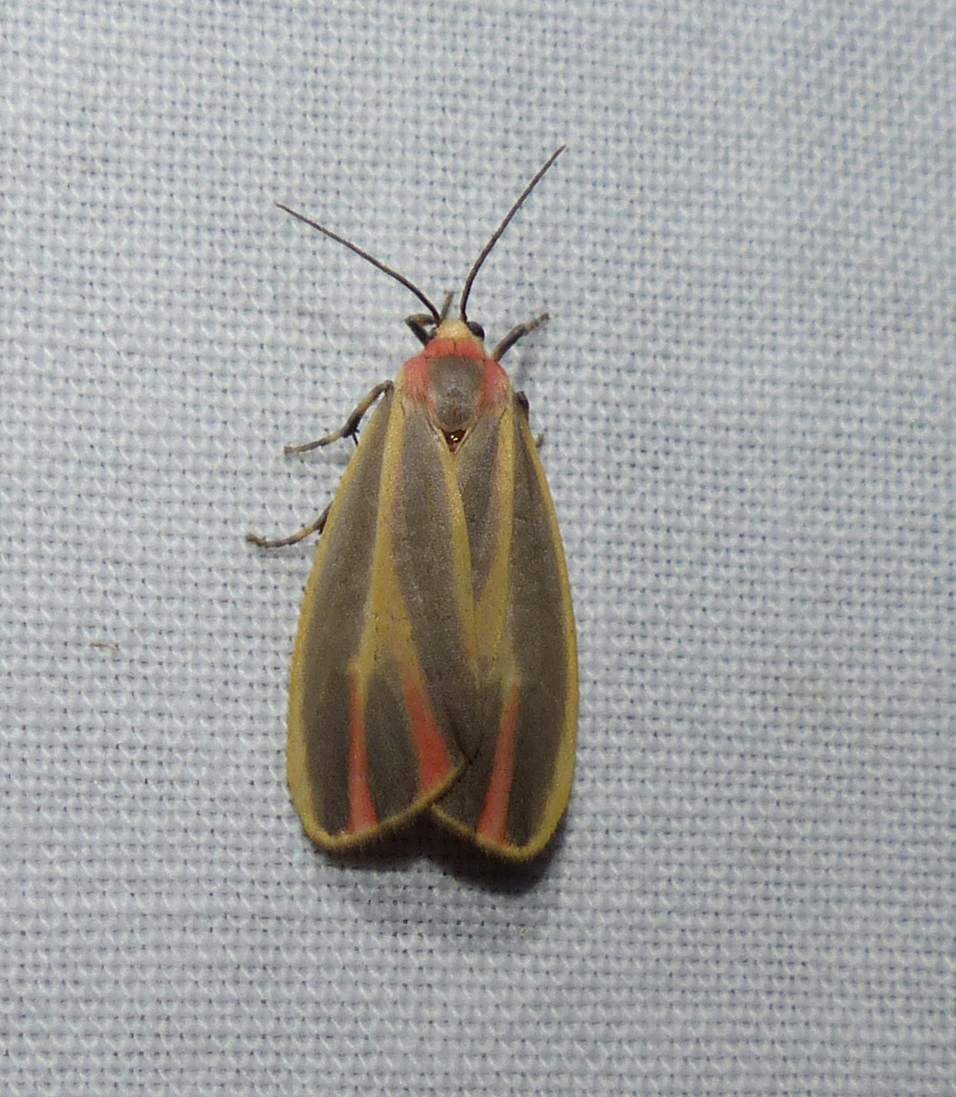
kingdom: Animalia
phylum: Arthropoda
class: Insecta
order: Lepidoptera
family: Erebidae
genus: Hypoprepia
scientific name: Hypoprepia fucosa
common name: Painted lichen moth
